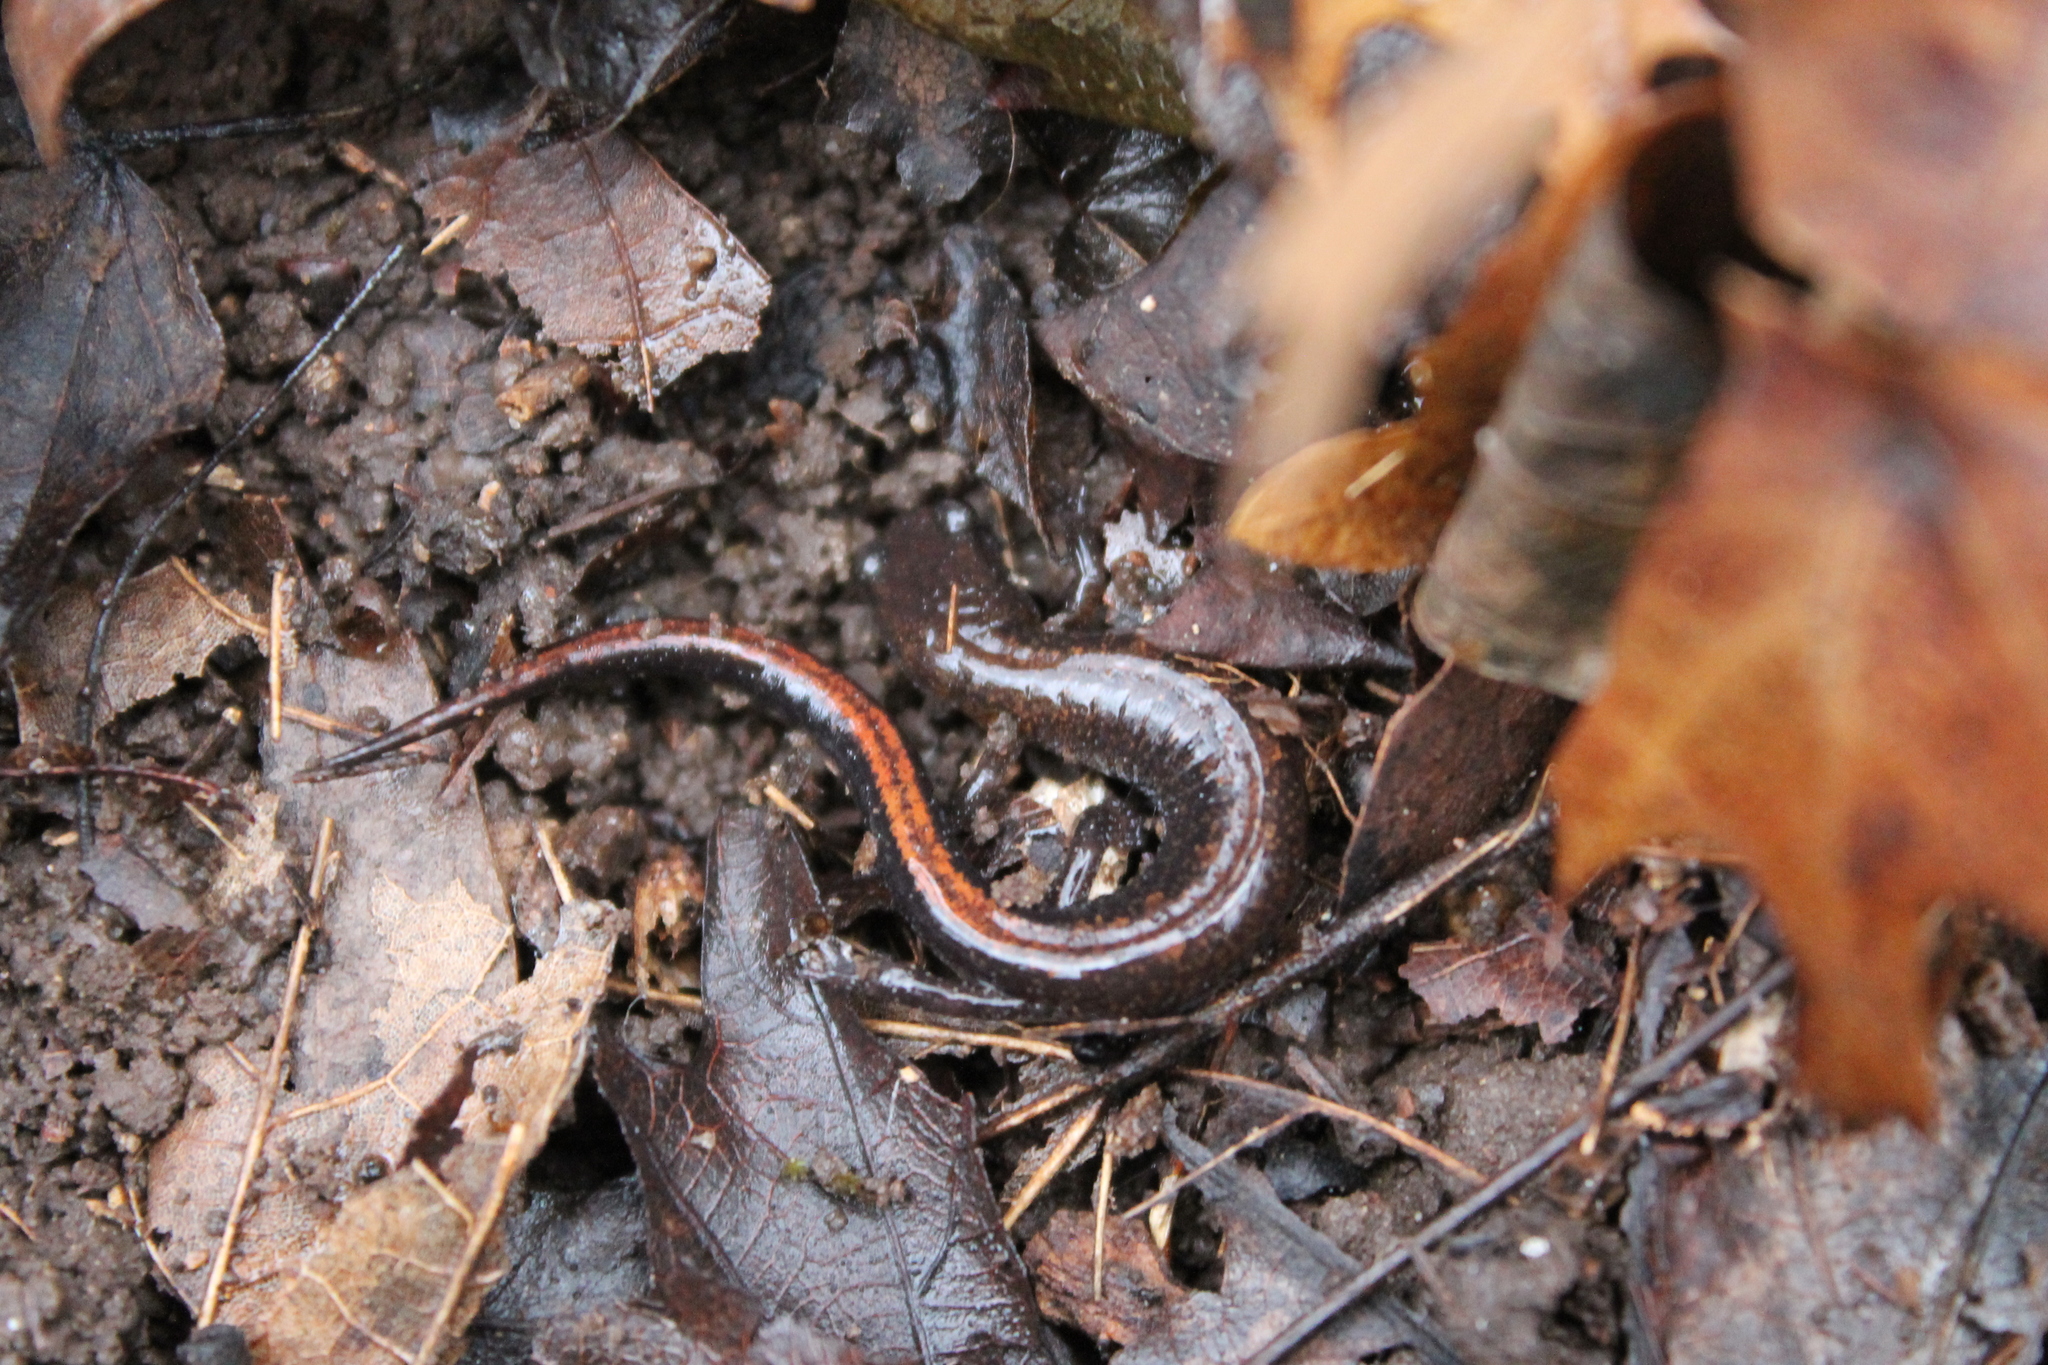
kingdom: Animalia
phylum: Chordata
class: Amphibia
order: Caudata
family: Plethodontidae
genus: Plethodon
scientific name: Plethodon dorsalis
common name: Northern zigzag salamander
